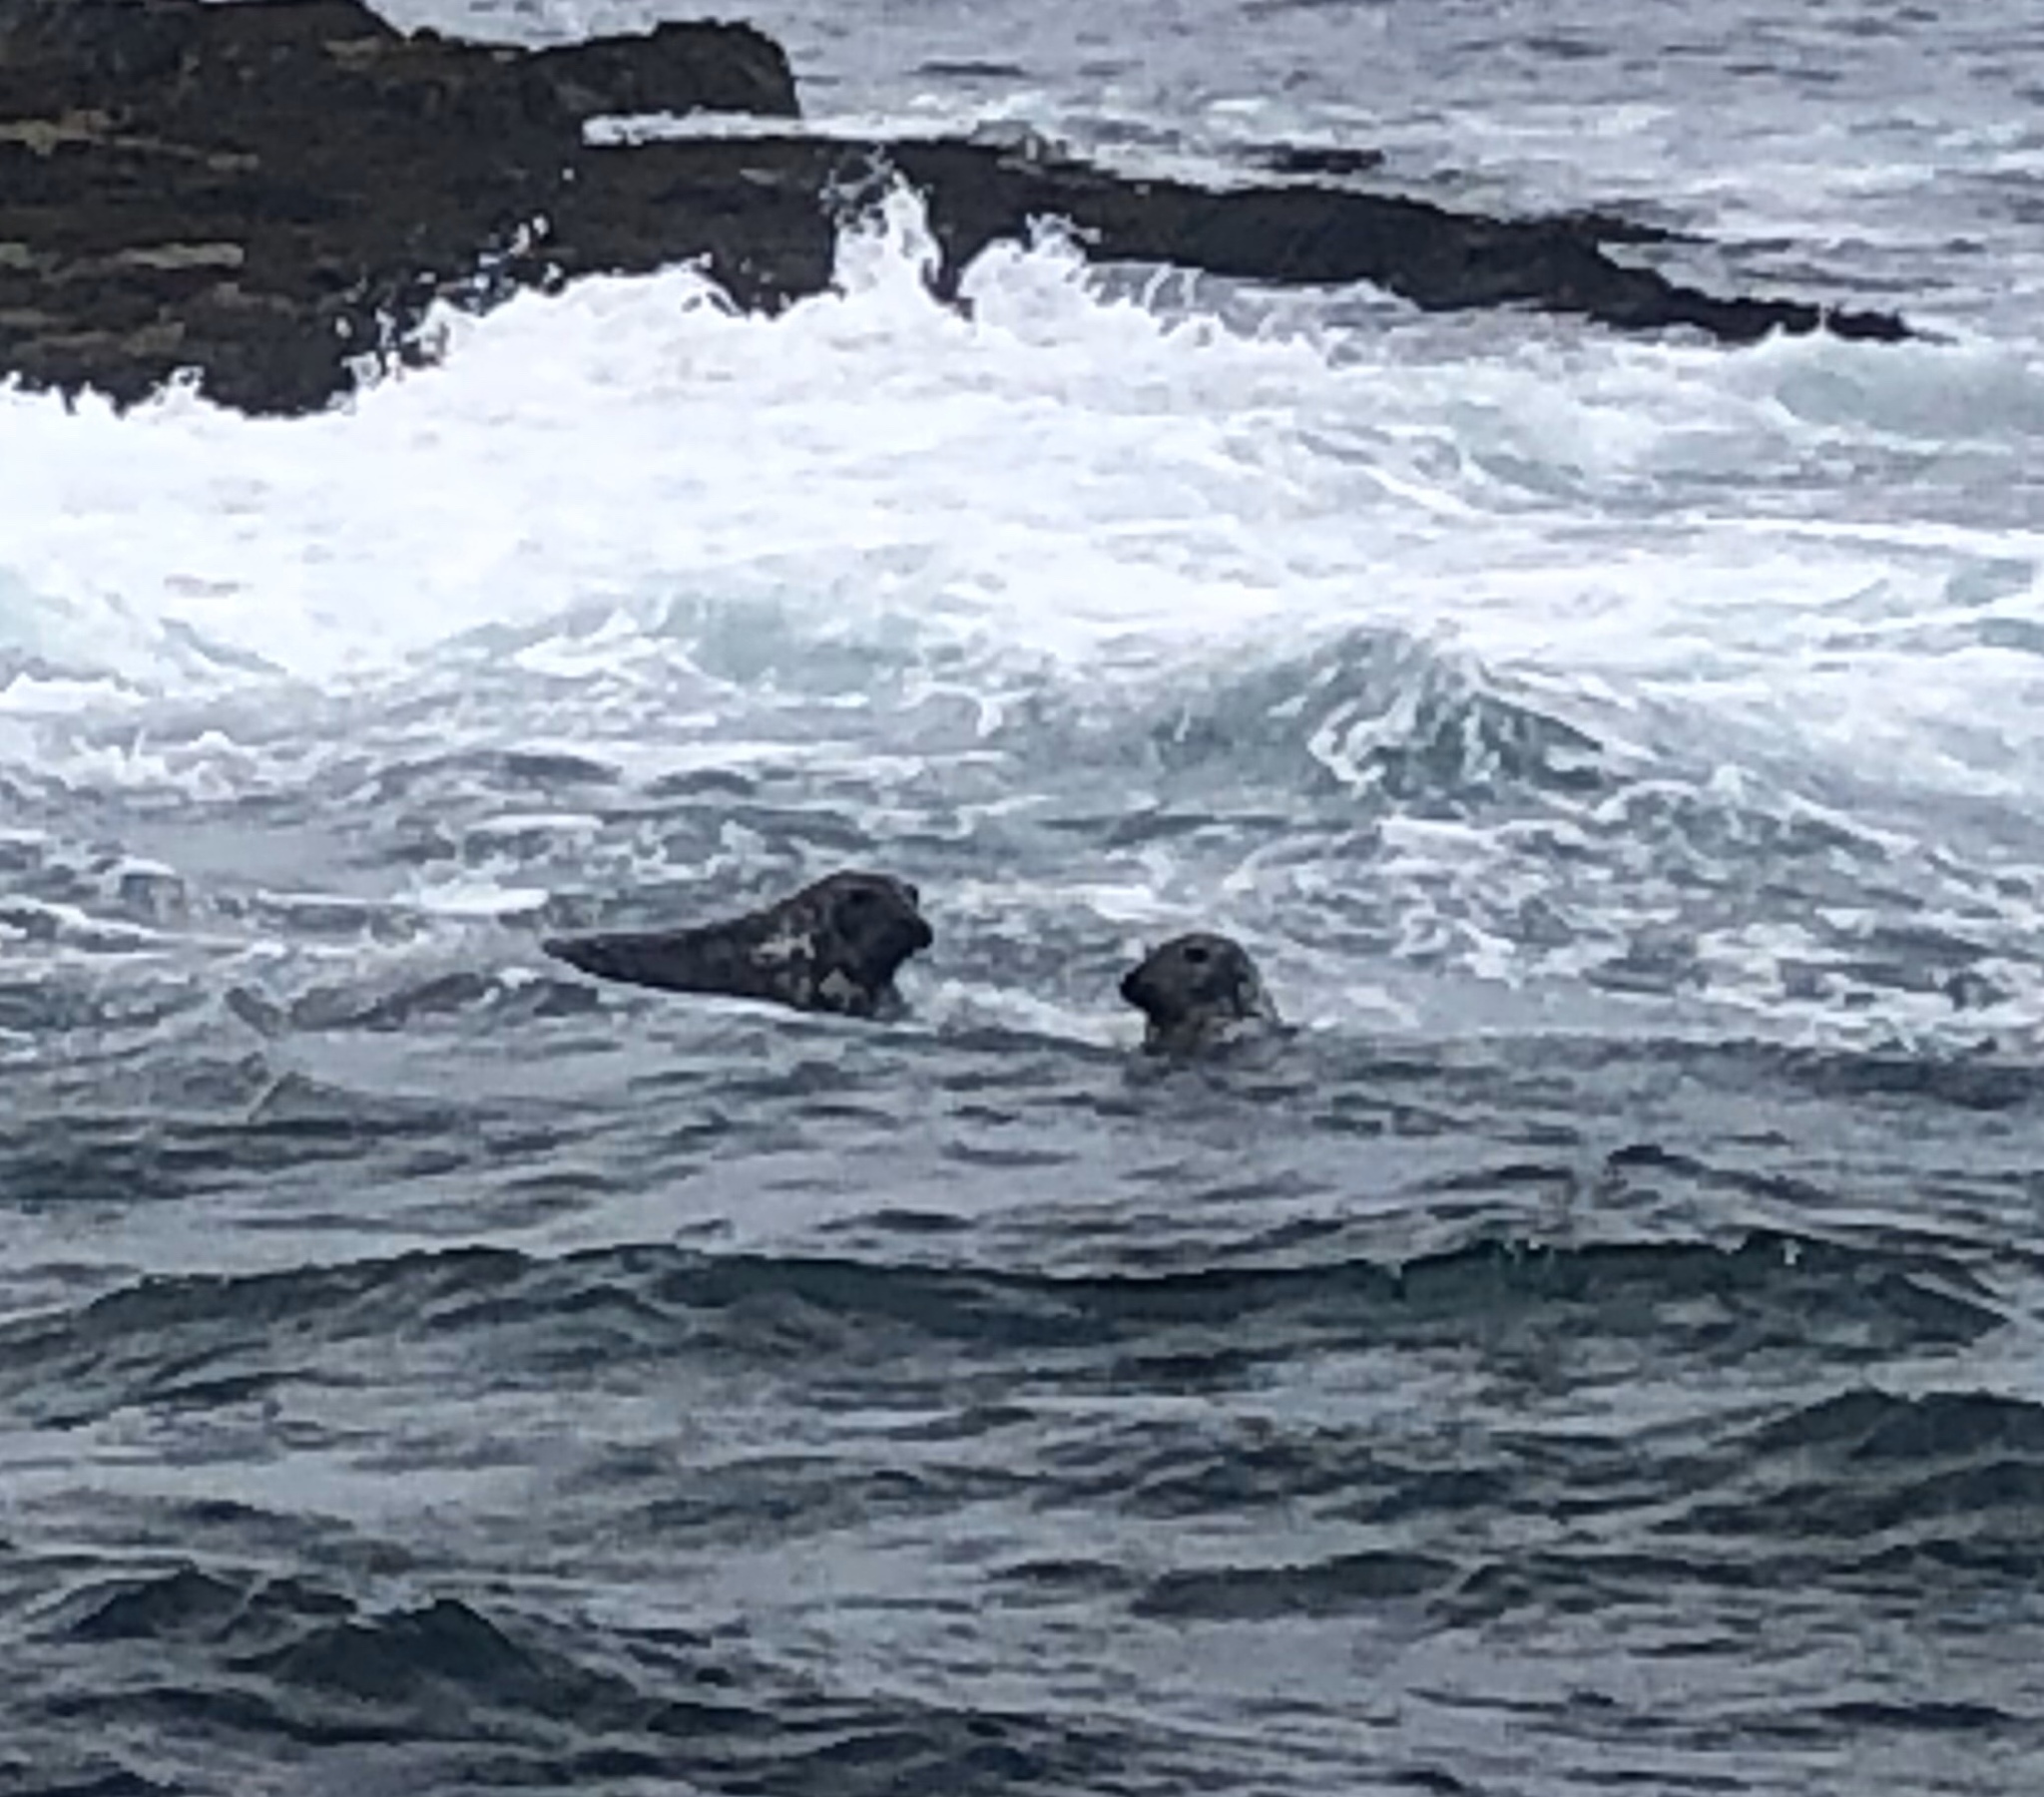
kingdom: Animalia
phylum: Chordata
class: Mammalia
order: Carnivora
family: Phocidae
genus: Halichoerus
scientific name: Halichoerus grypus
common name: Grey seal
